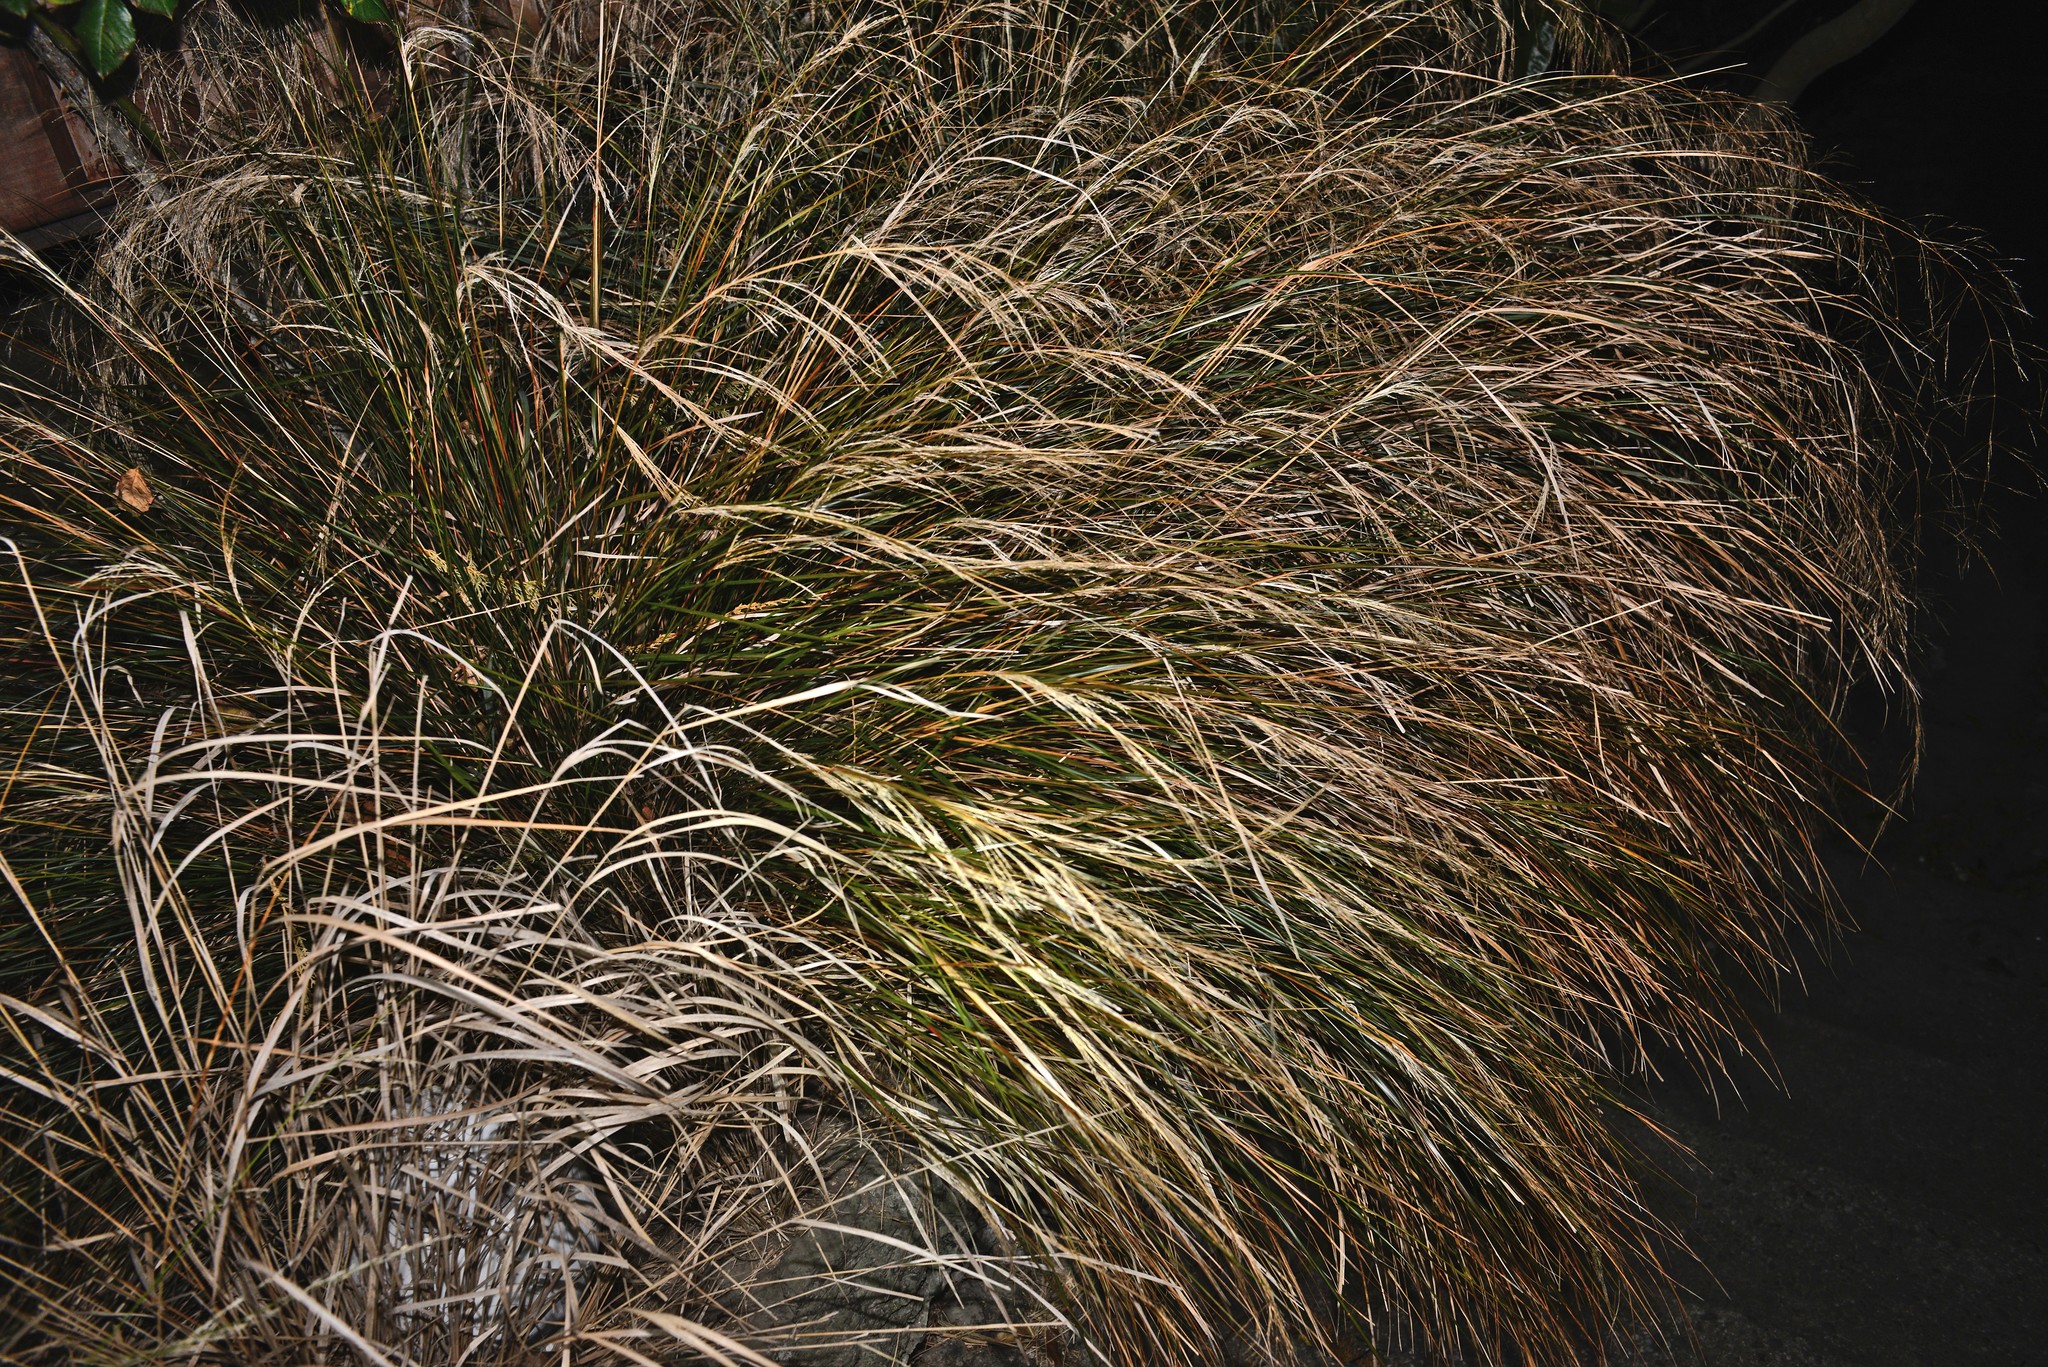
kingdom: Plantae
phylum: Tracheophyta
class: Liliopsida
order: Poales
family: Poaceae
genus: Anemanthele
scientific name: Anemanthele lessoniana
